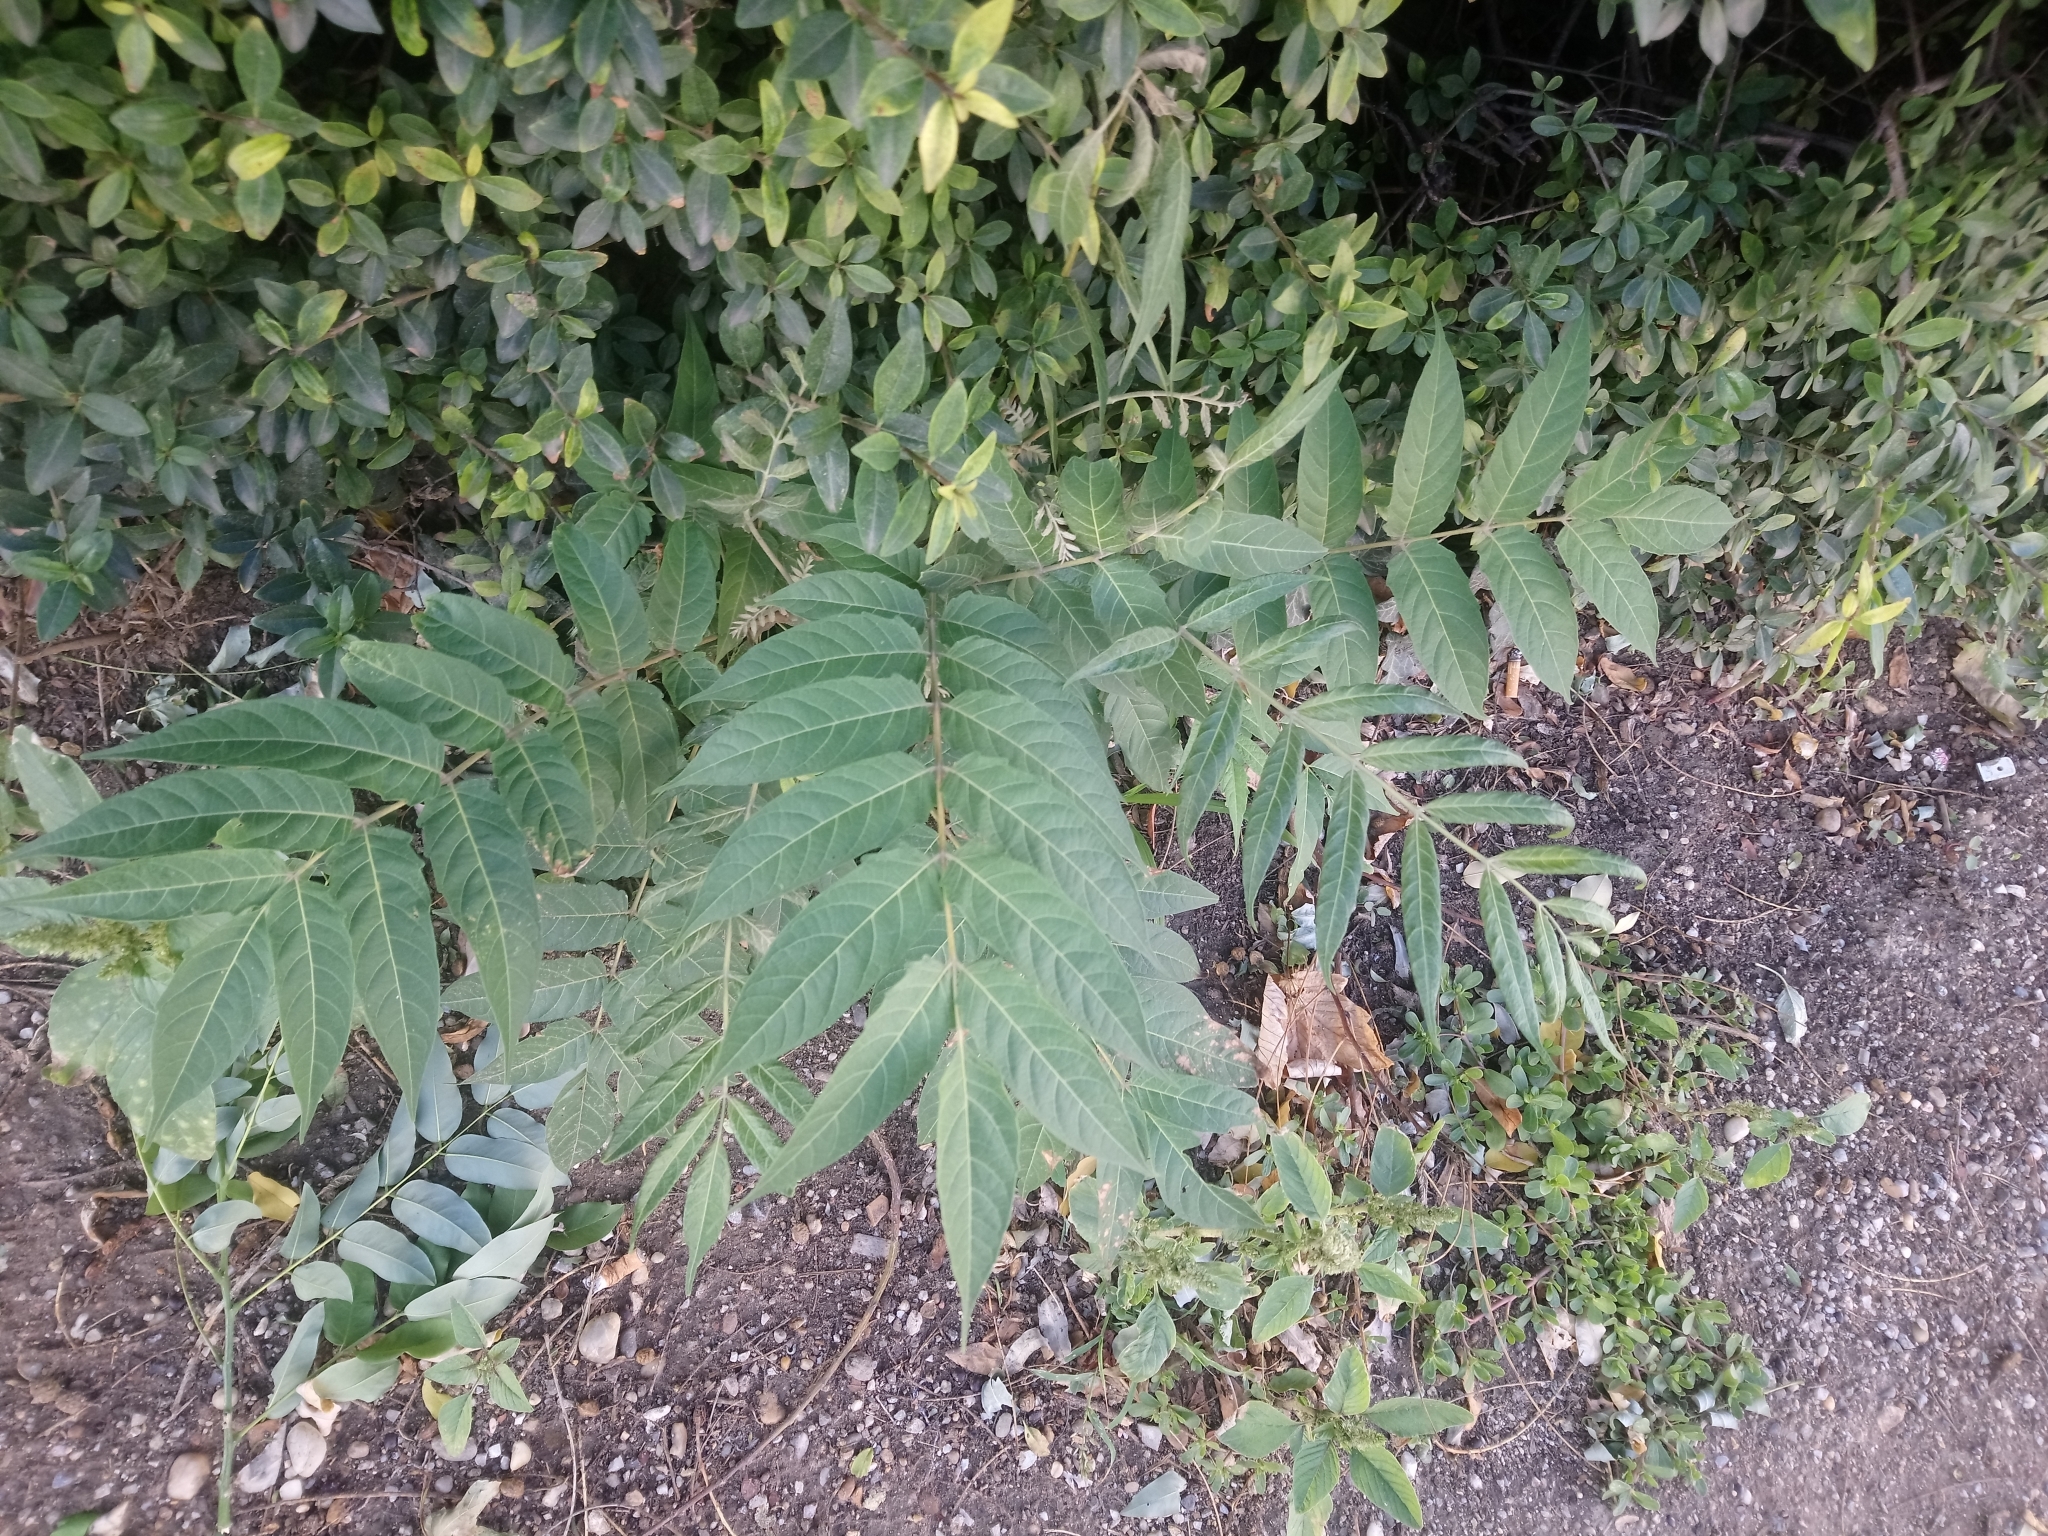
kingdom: Plantae
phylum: Tracheophyta
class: Magnoliopsida
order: Sapindales
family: Simaroubaceae
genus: Ailanthus
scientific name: Ailanthus altissima
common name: Tree-of-heaven
